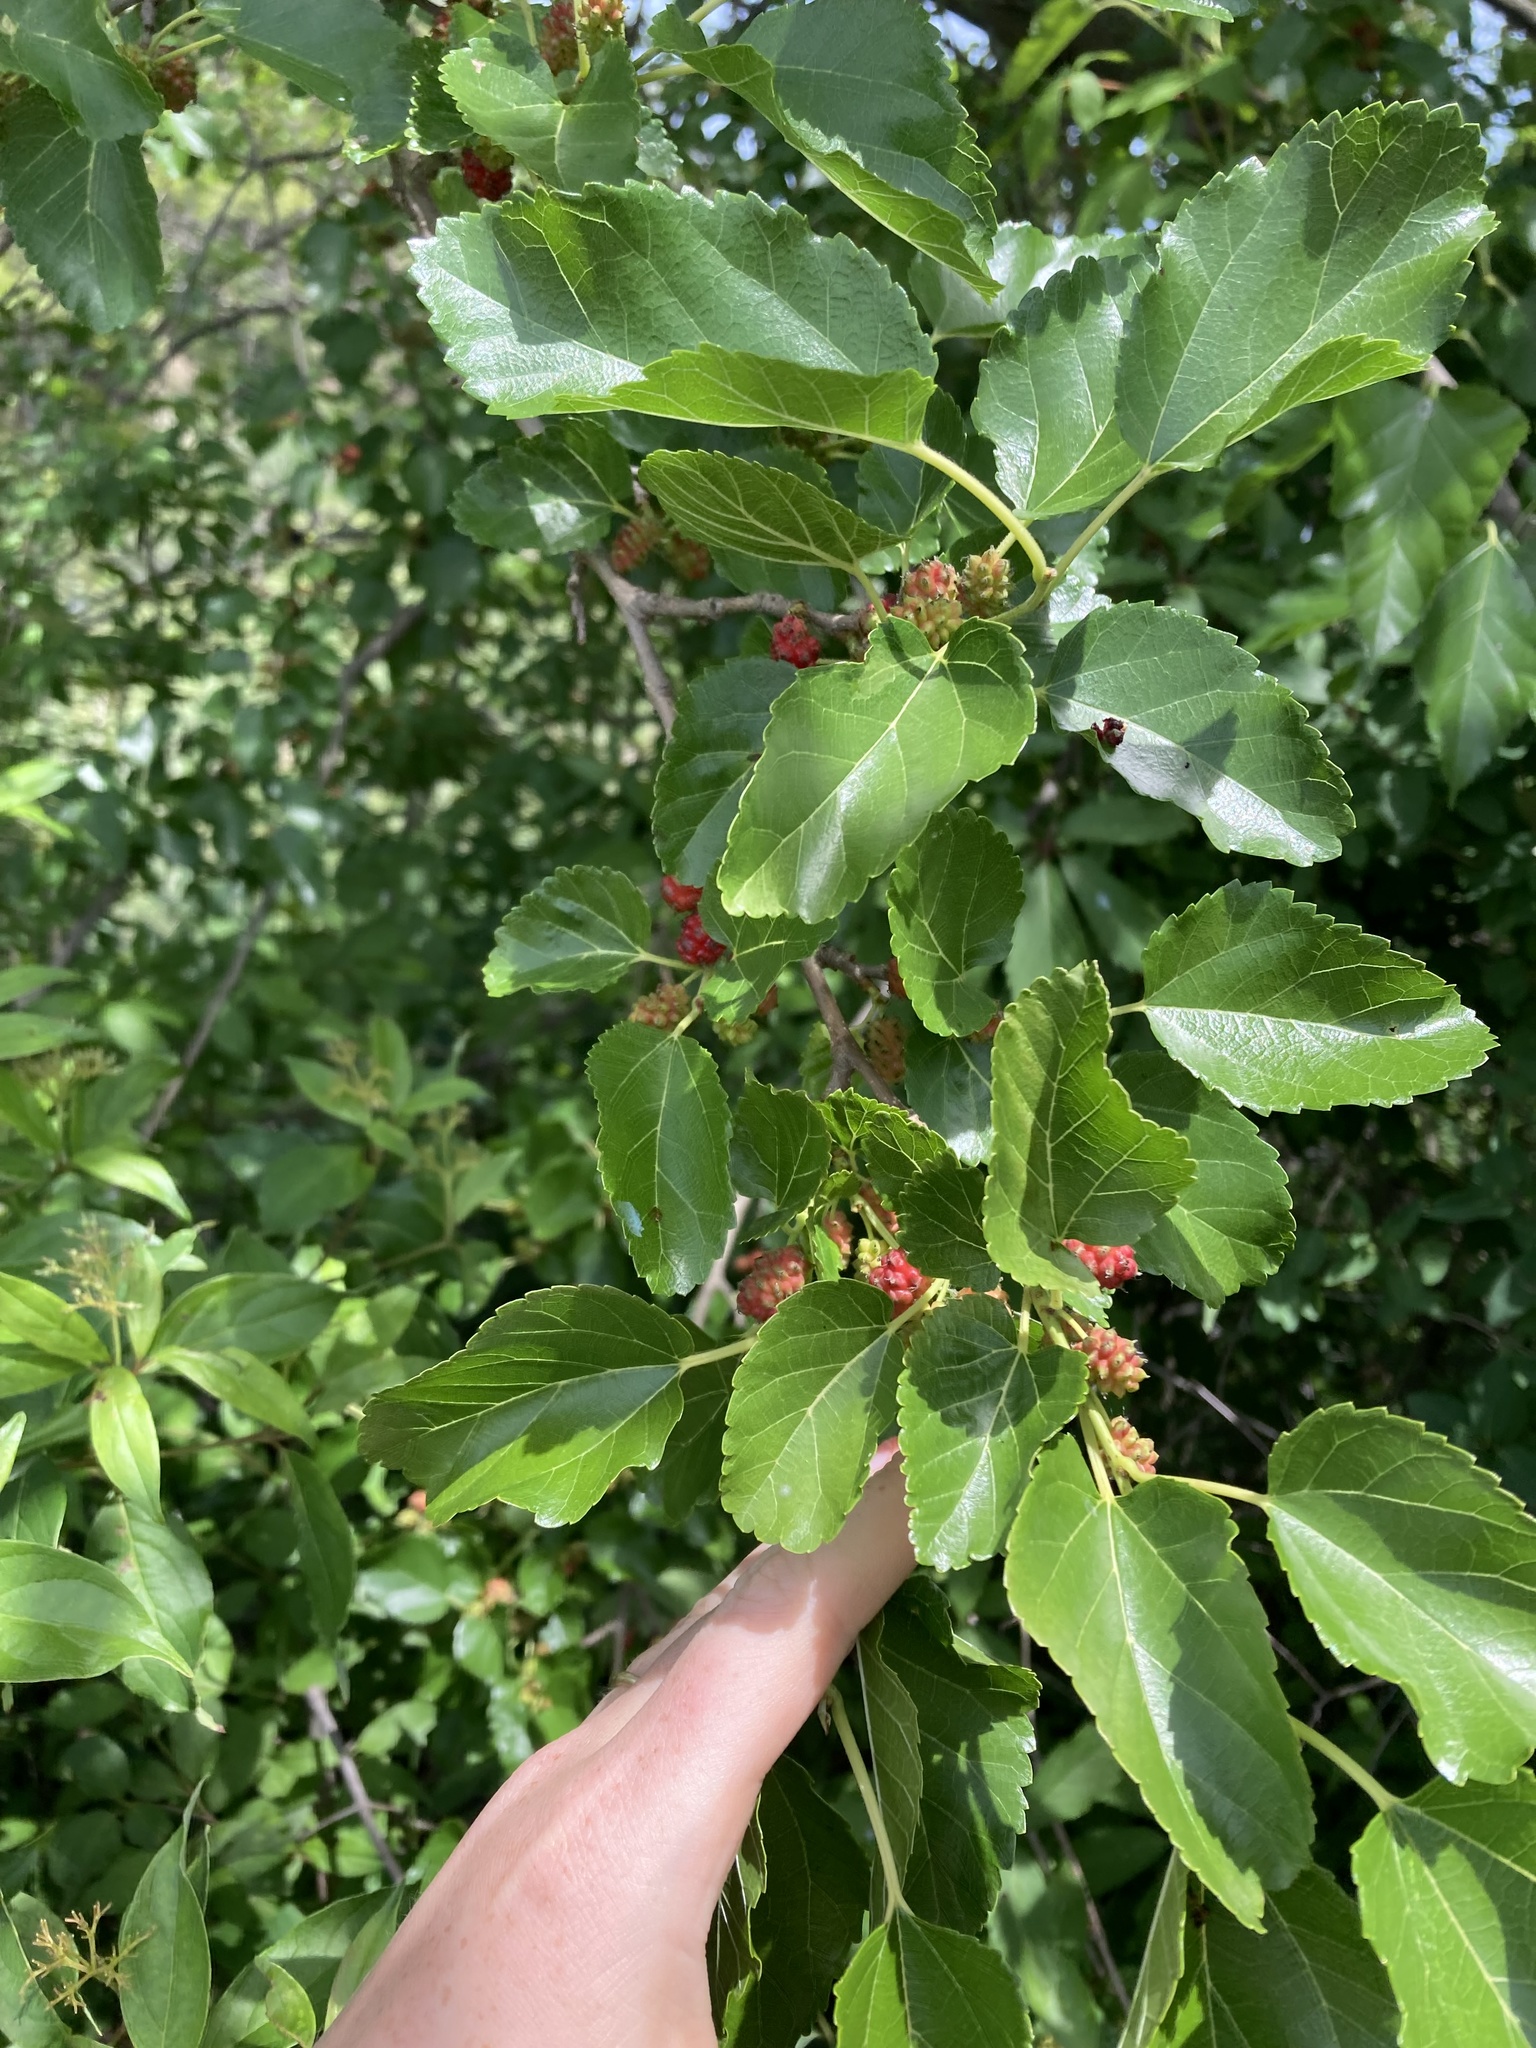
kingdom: Plantae
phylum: Tracheophyta
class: Magnoliopsida
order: Rosales
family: Moraceae
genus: Morus
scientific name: Morus alba
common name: White mulberry
